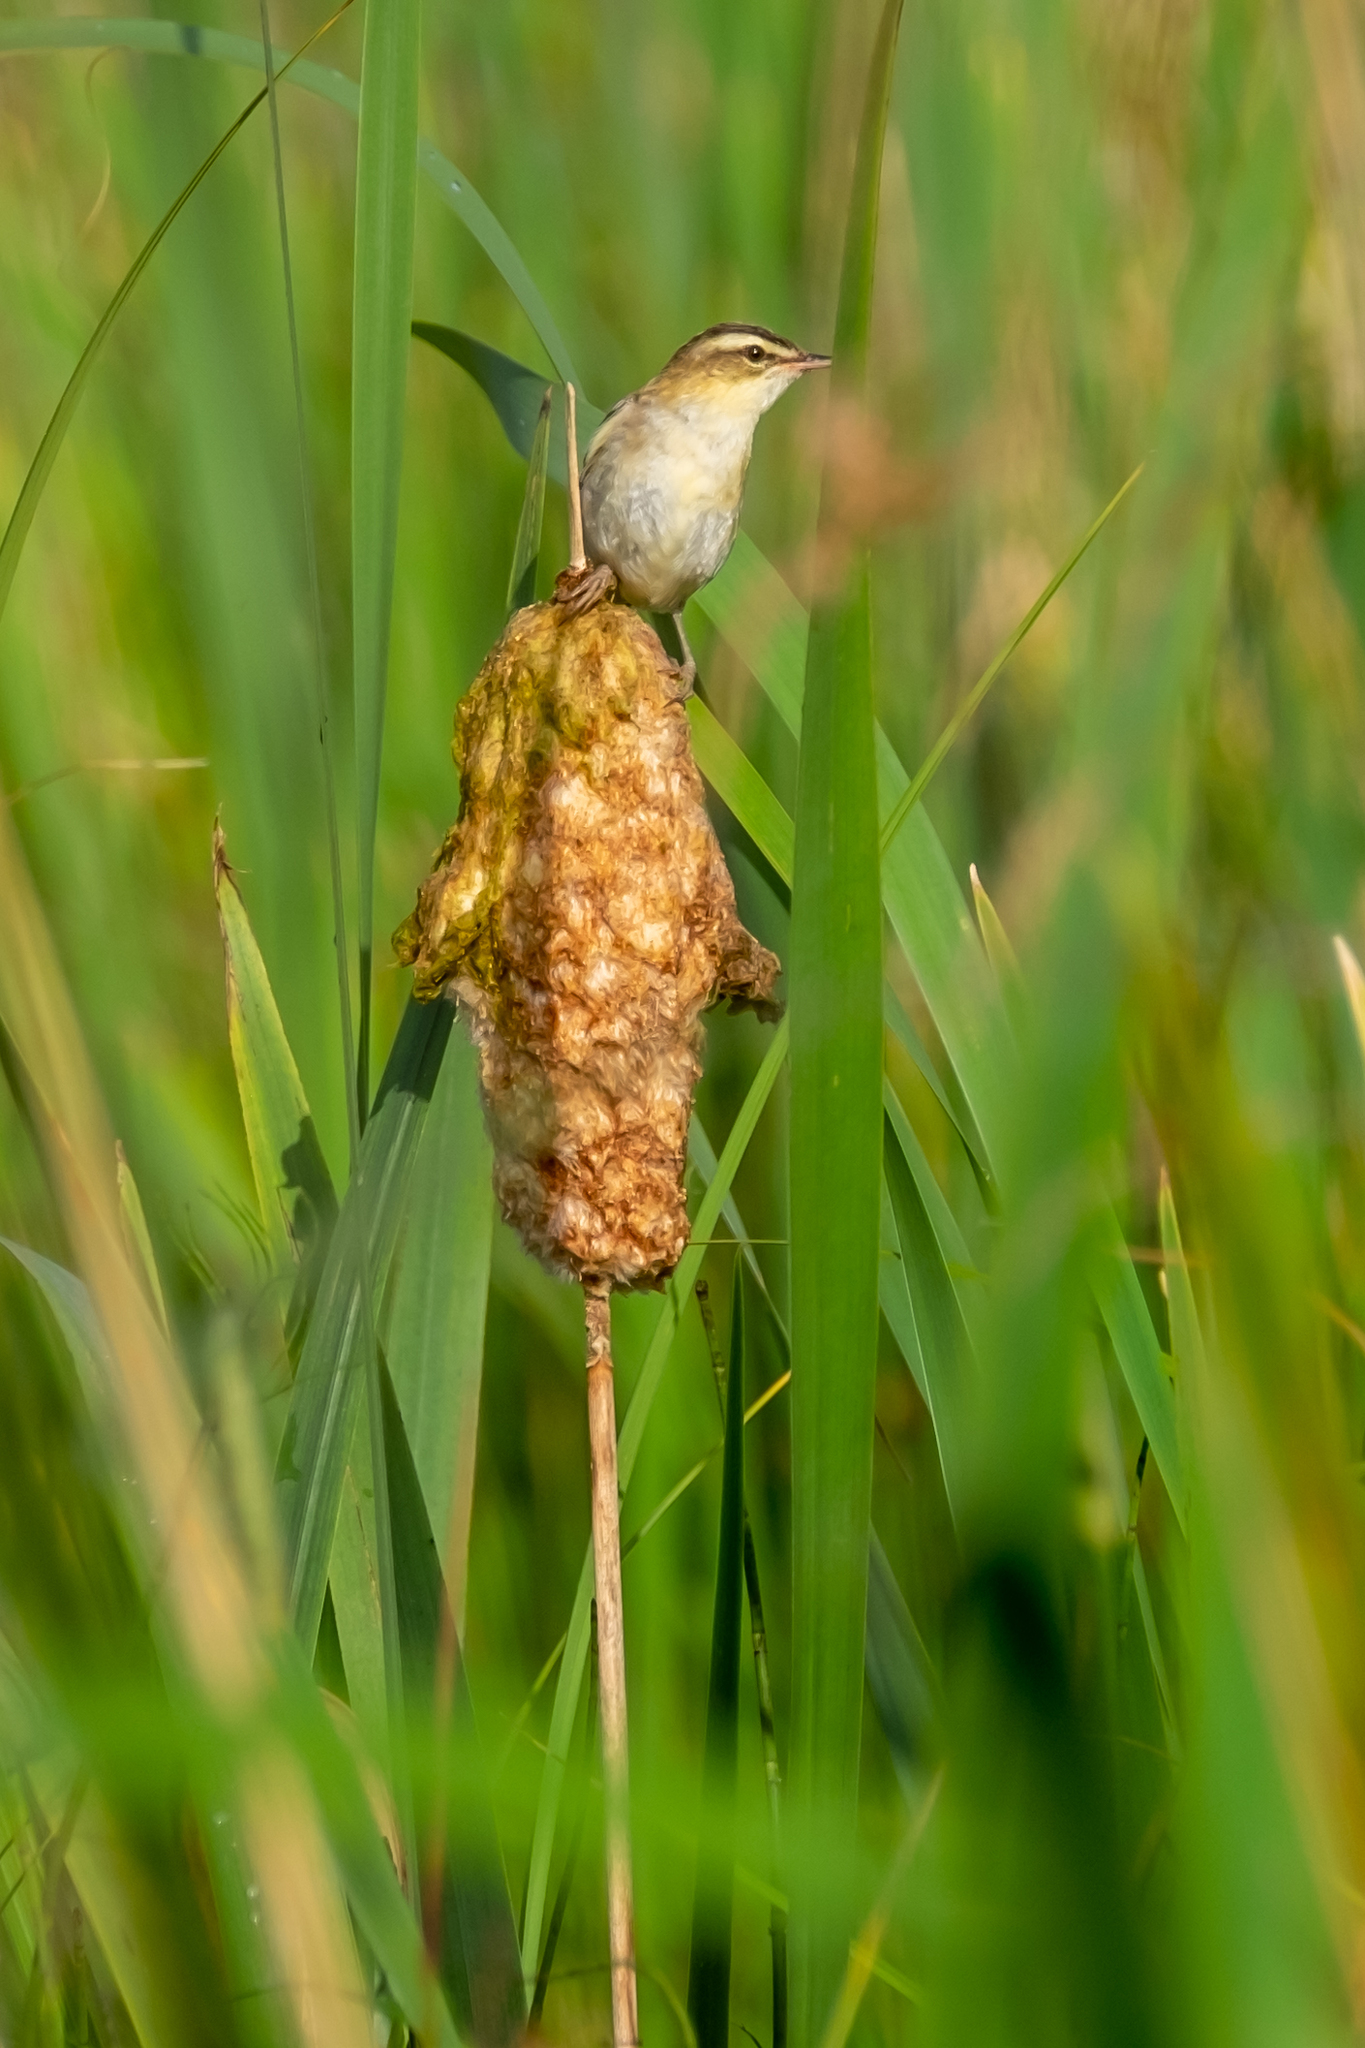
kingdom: Animalia
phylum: Chordata
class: Aves
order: Passeriformes
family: Acrocephalidae
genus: Acrocephalus
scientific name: Acrocephalus schoenobaenus
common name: Sedge warbler
